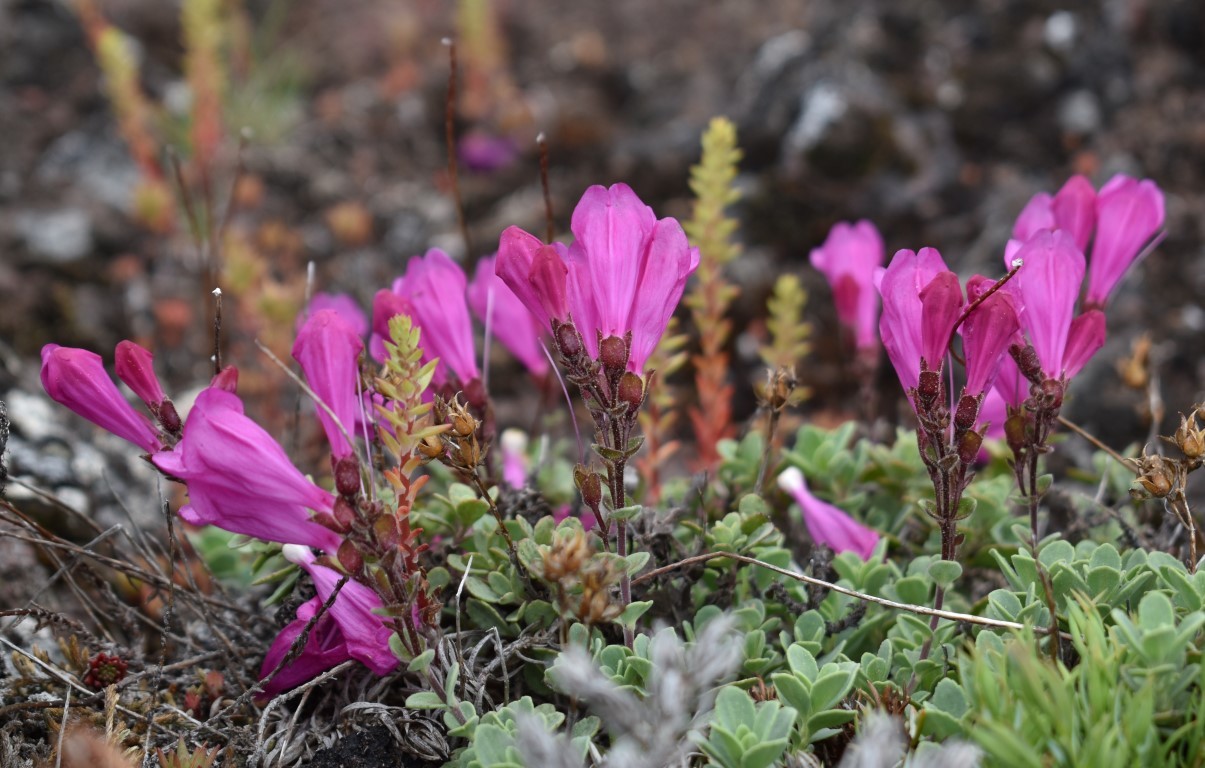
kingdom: Plantae
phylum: Tracheophyta
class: Magnoliopsida
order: Lamiales
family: Plantaginaceae
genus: Penstemon
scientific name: Penstemon rupicola
